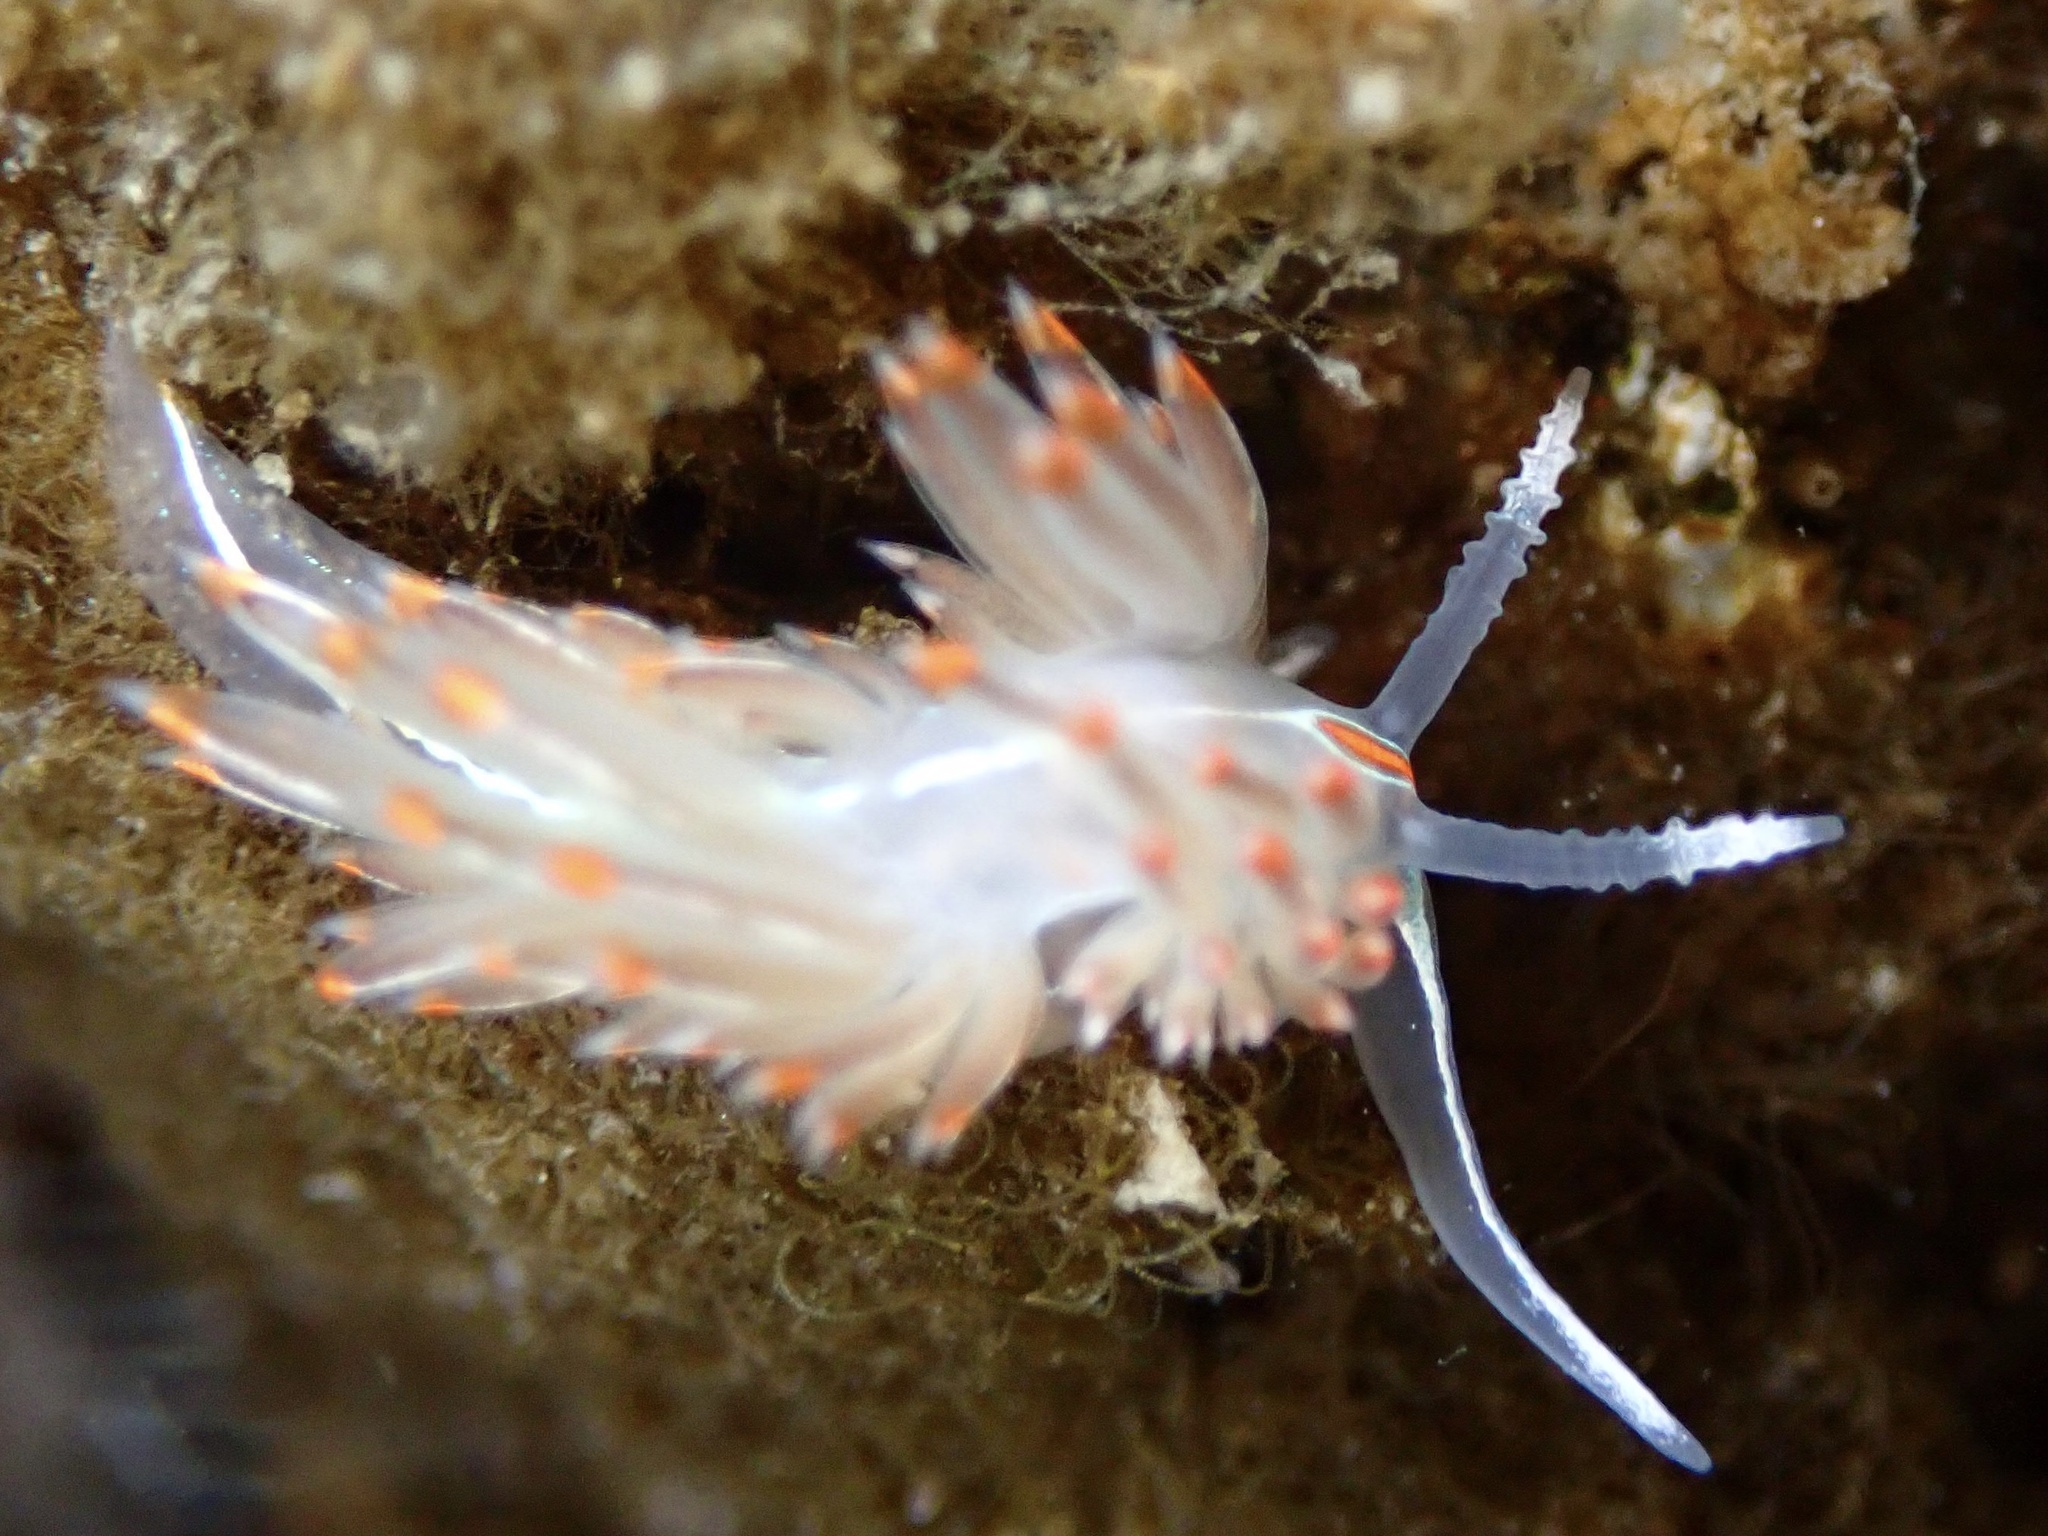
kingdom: Animalia
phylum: Mollusca
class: Gastropoda
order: Nudibranchia
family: Myrrhinidae
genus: Hermissenda
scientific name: Hermissenda crassicornis
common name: Hermissenda
